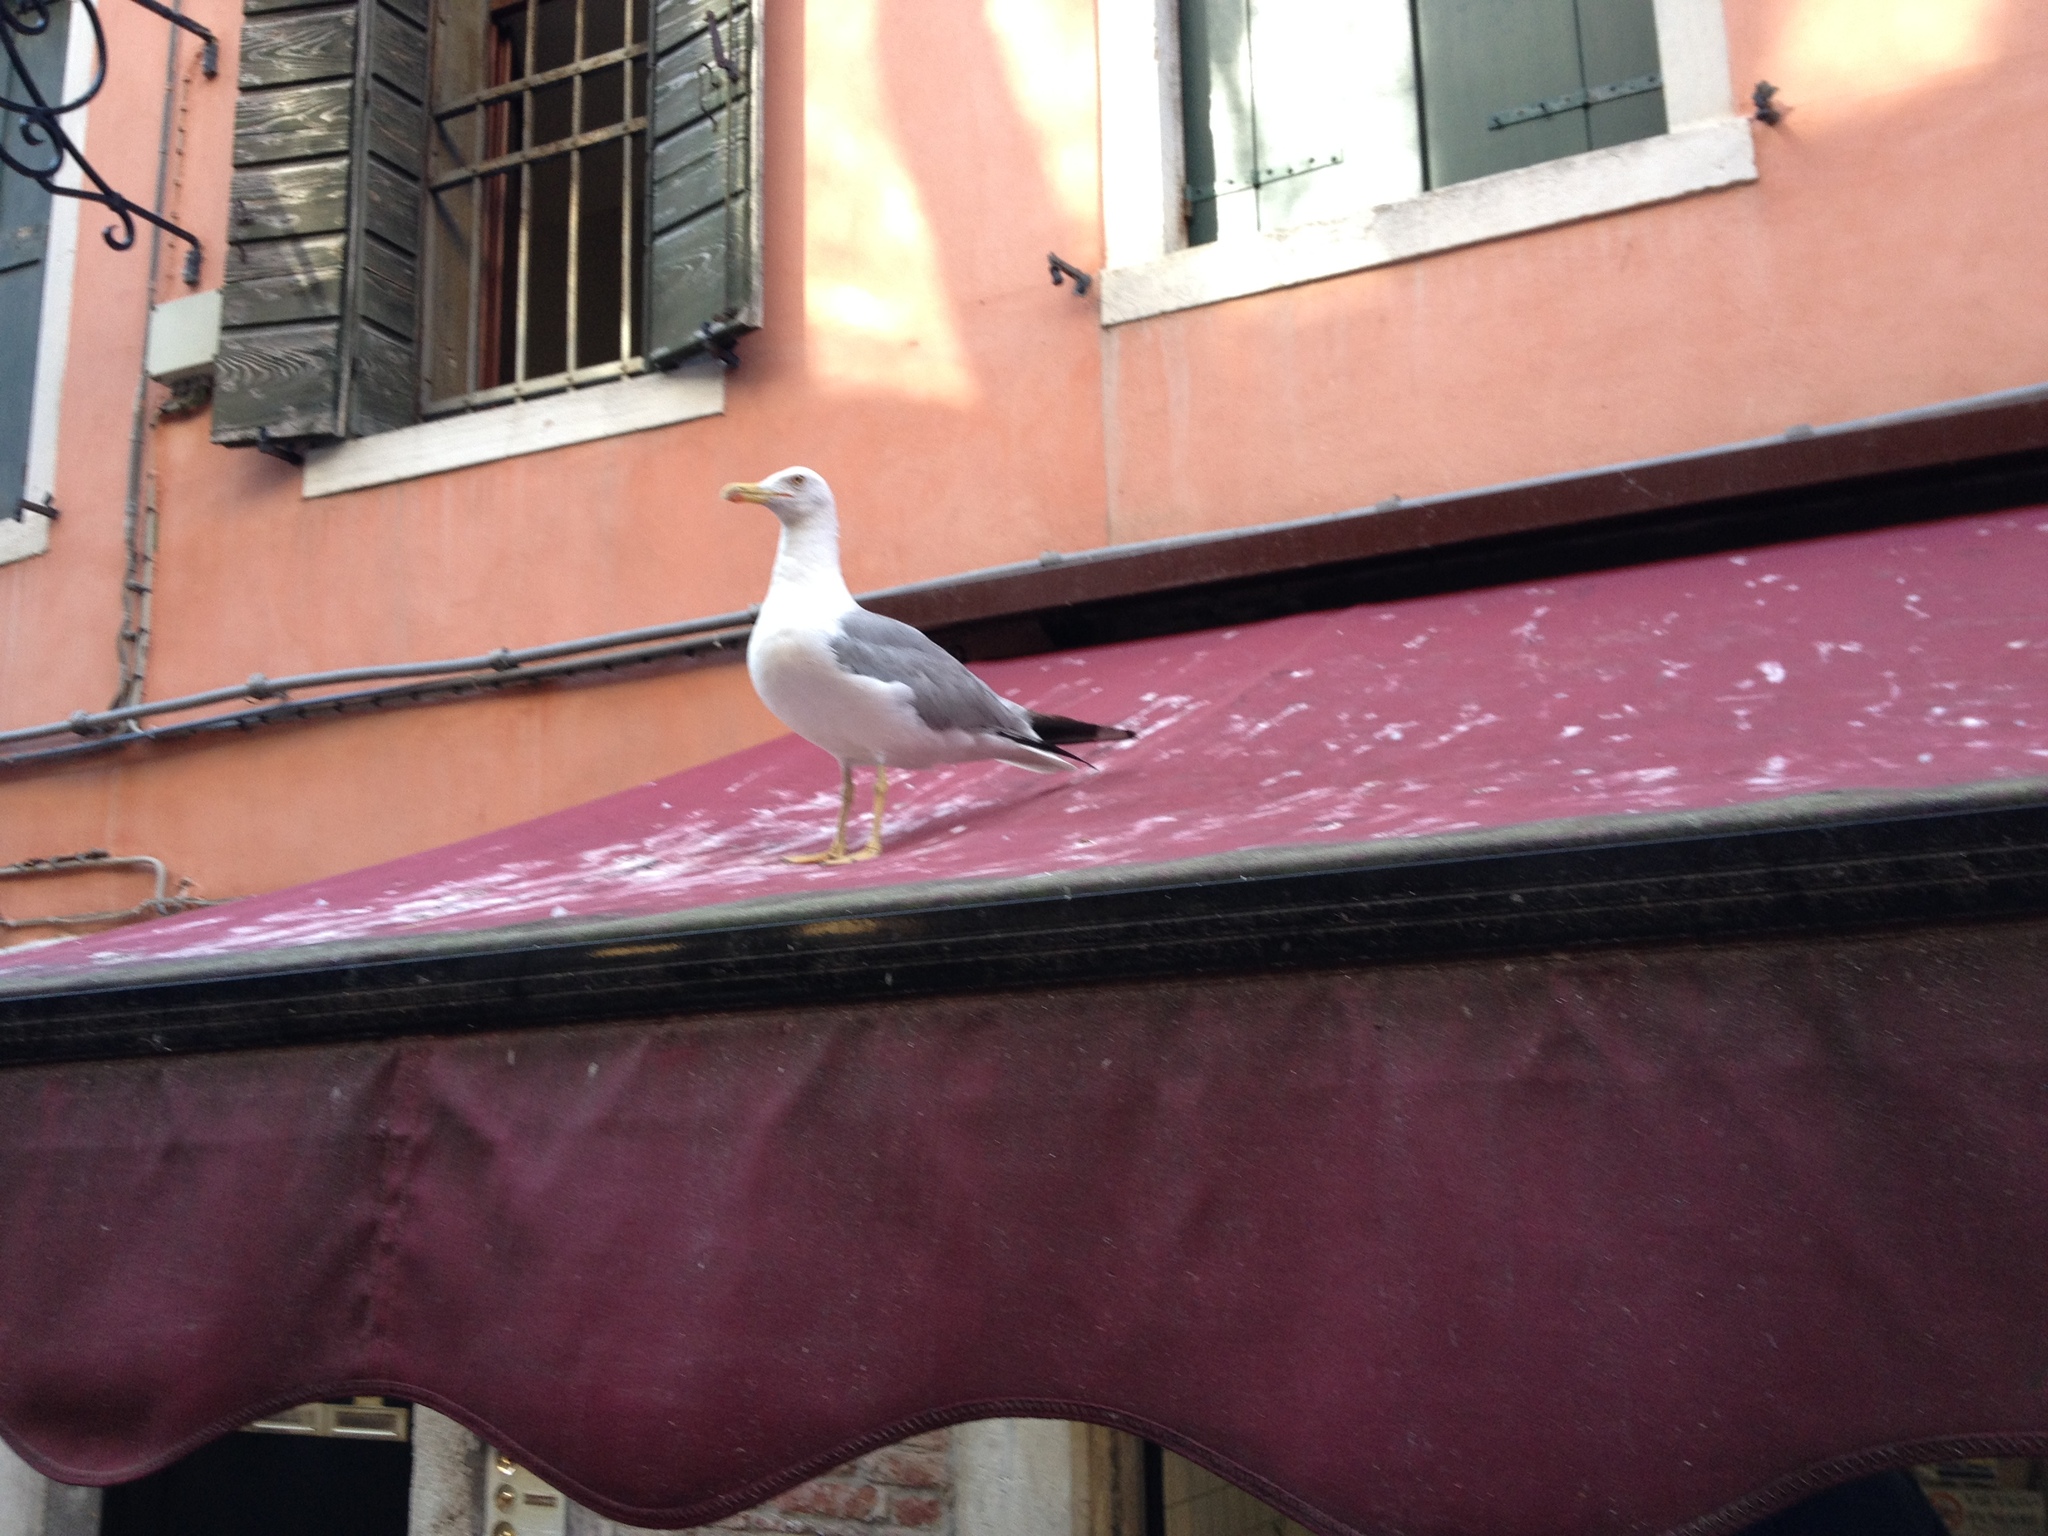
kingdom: Animalia
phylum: Chordata
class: Aves
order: Charadriiformes
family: Laridae
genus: Larus
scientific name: Larus michahellis
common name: Yellow-legged gull
